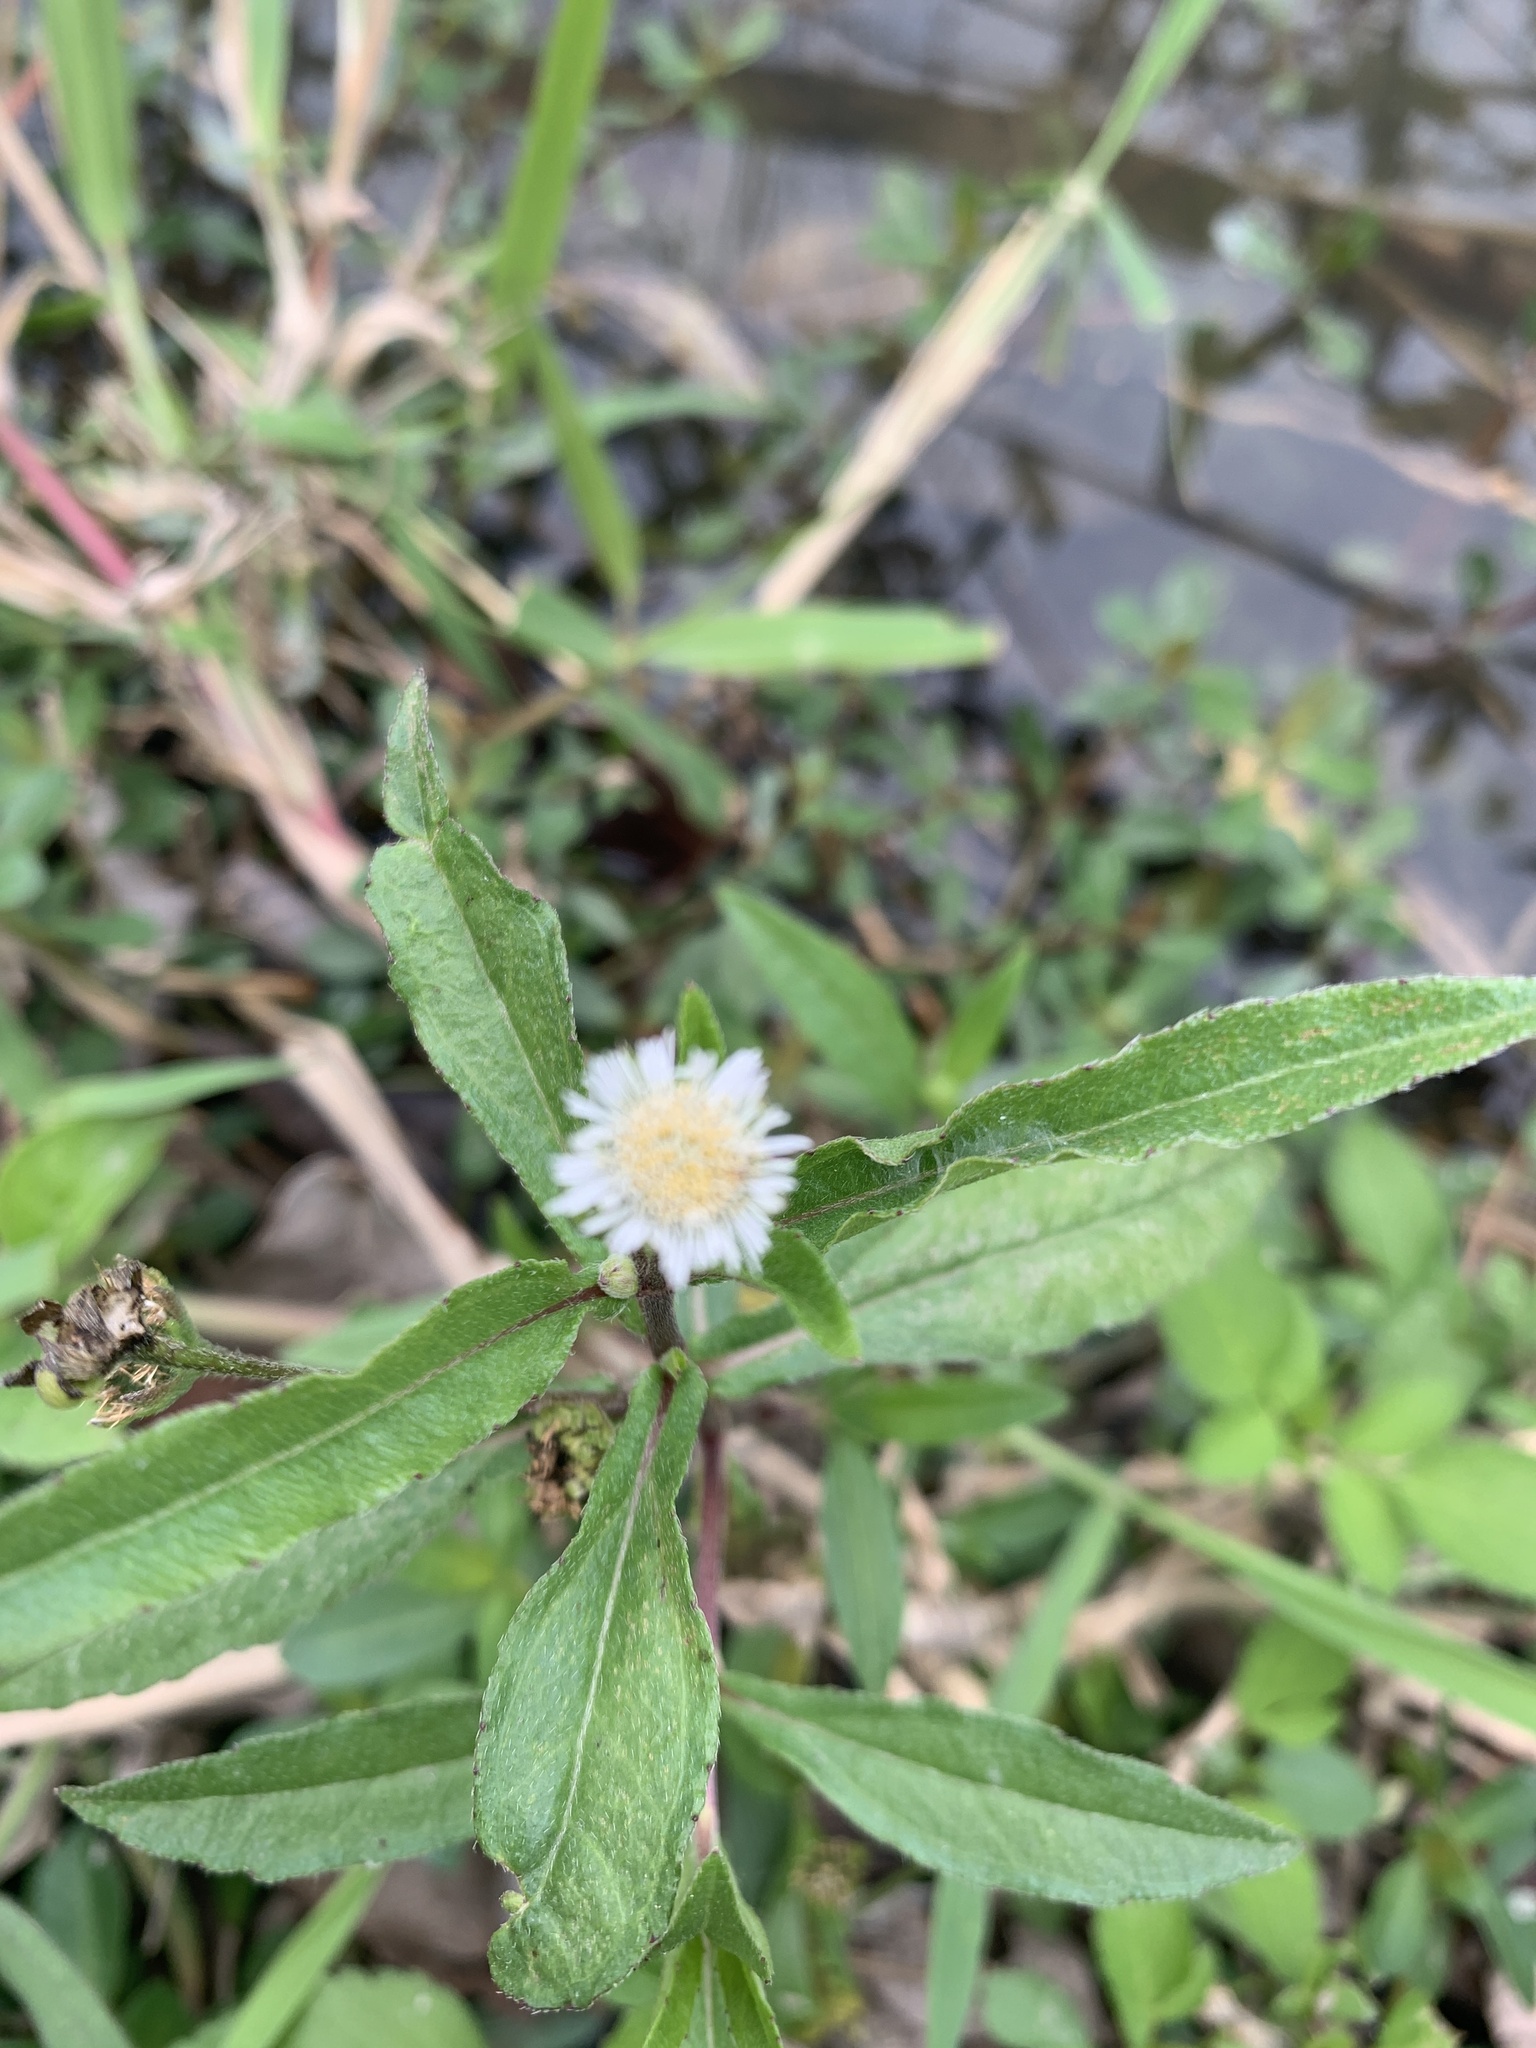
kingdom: Plantae
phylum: Tracheophyta
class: Magnoliopsida
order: Asterales
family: Asteraceae
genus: Eclipta
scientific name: Eclipta prostrata
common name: False daisy
